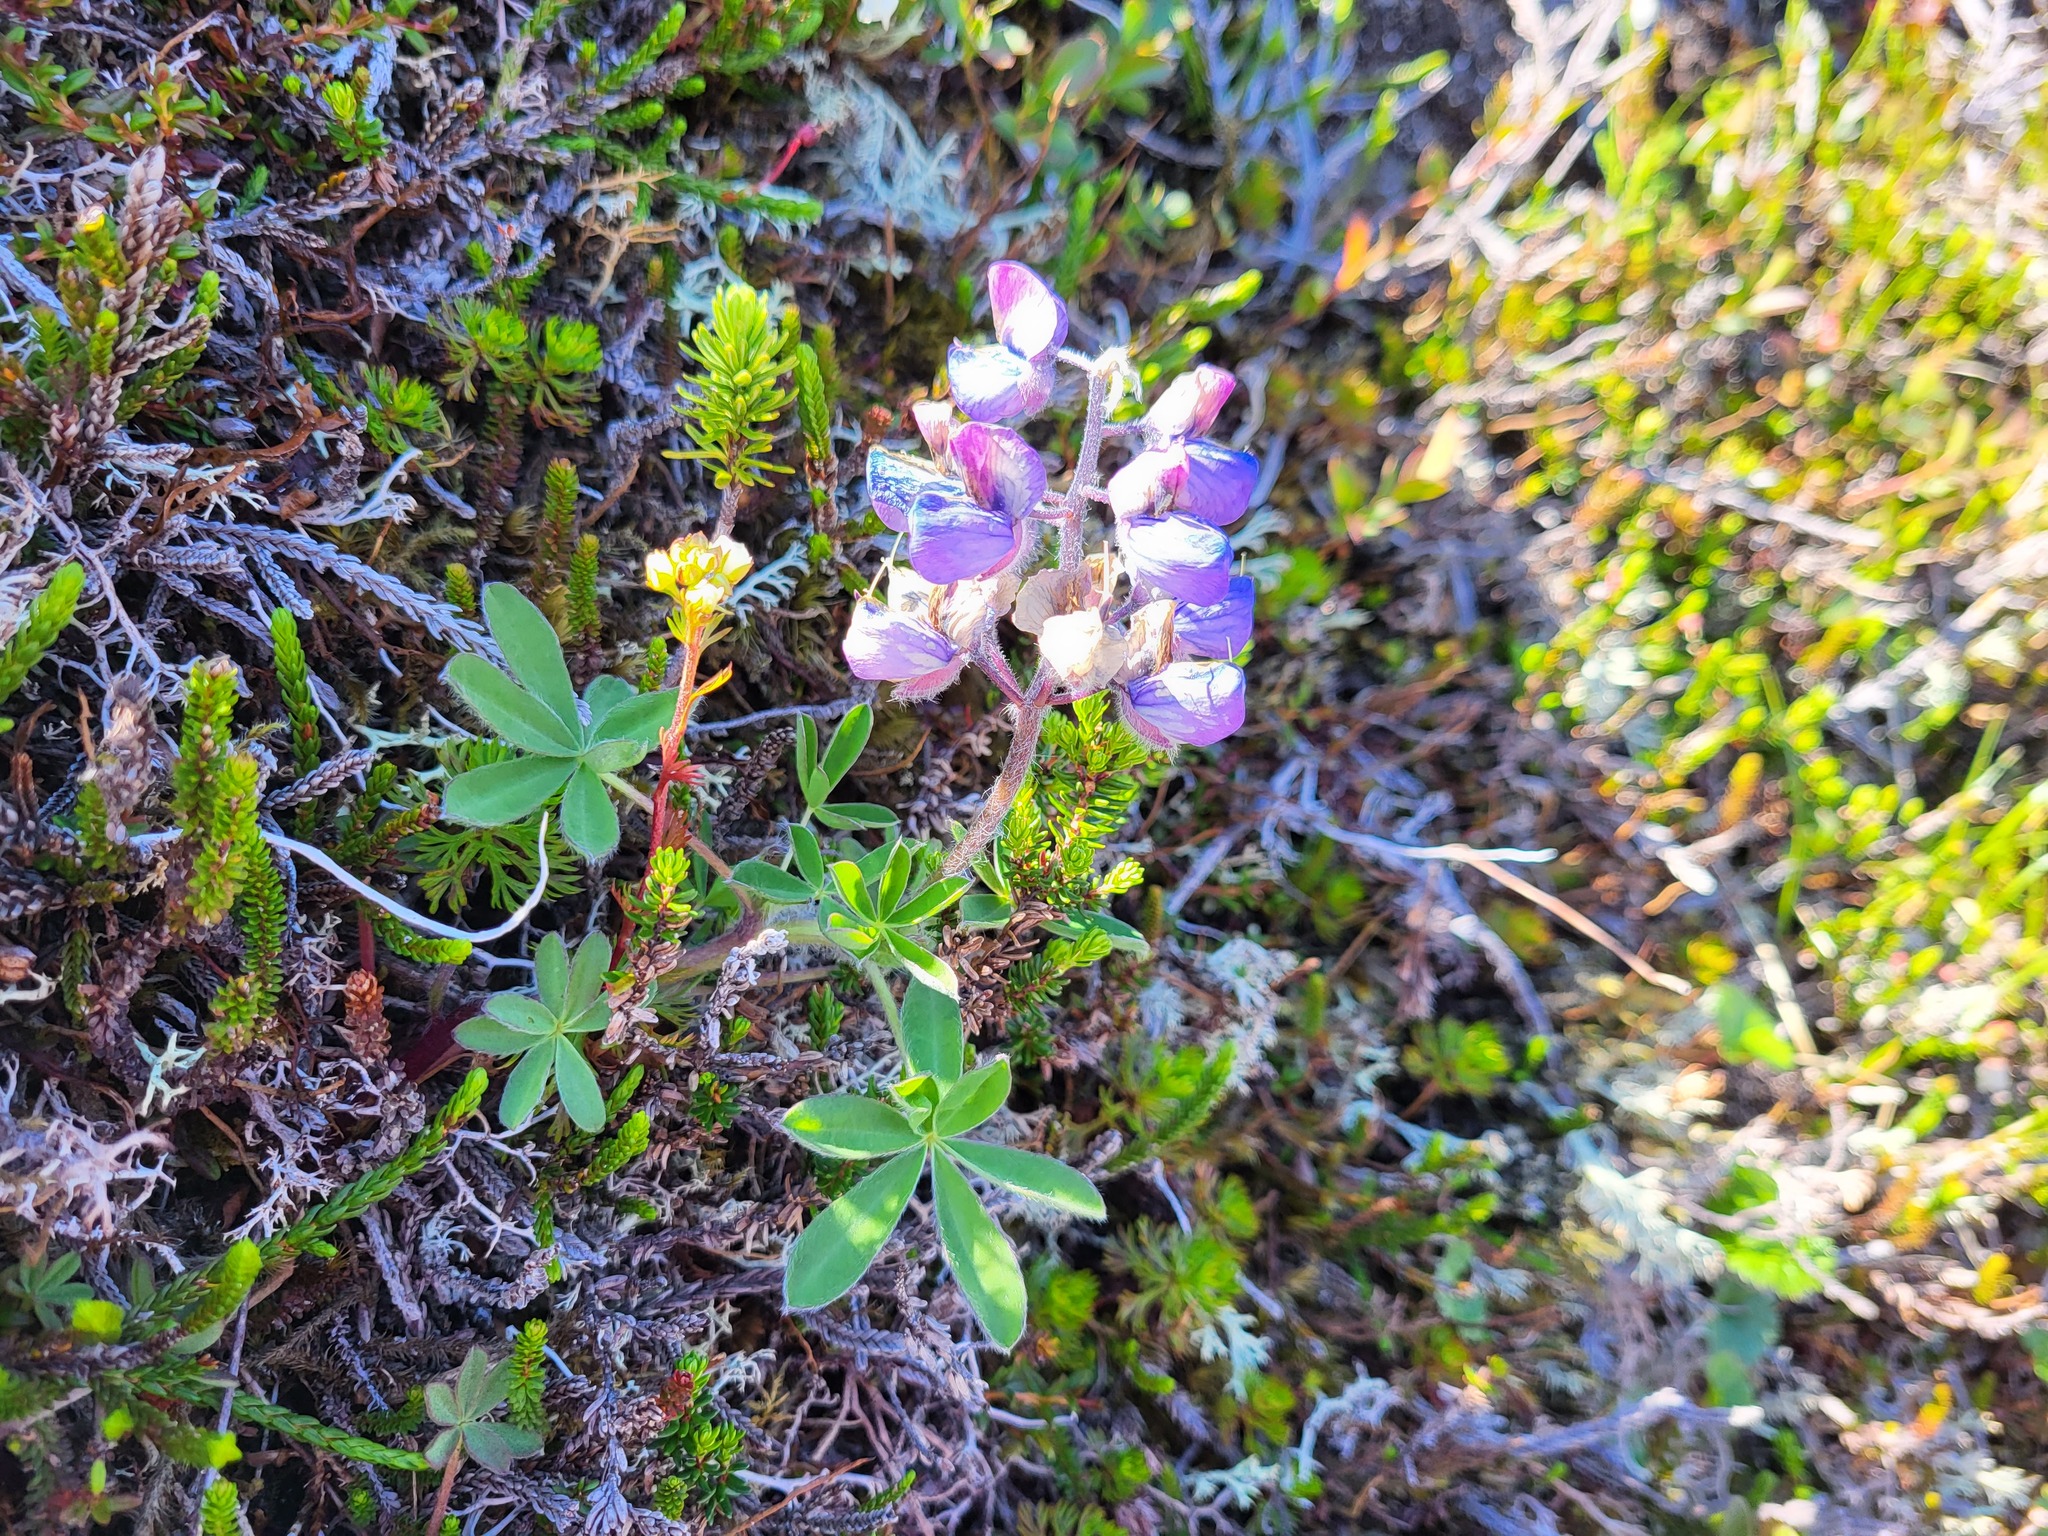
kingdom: Plantae
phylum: Tracheophyta
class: Magnoliopsida
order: Fabales
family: Fabaceae
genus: Lupinus
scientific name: Lupinus nootkatensis
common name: Nootka lupine
